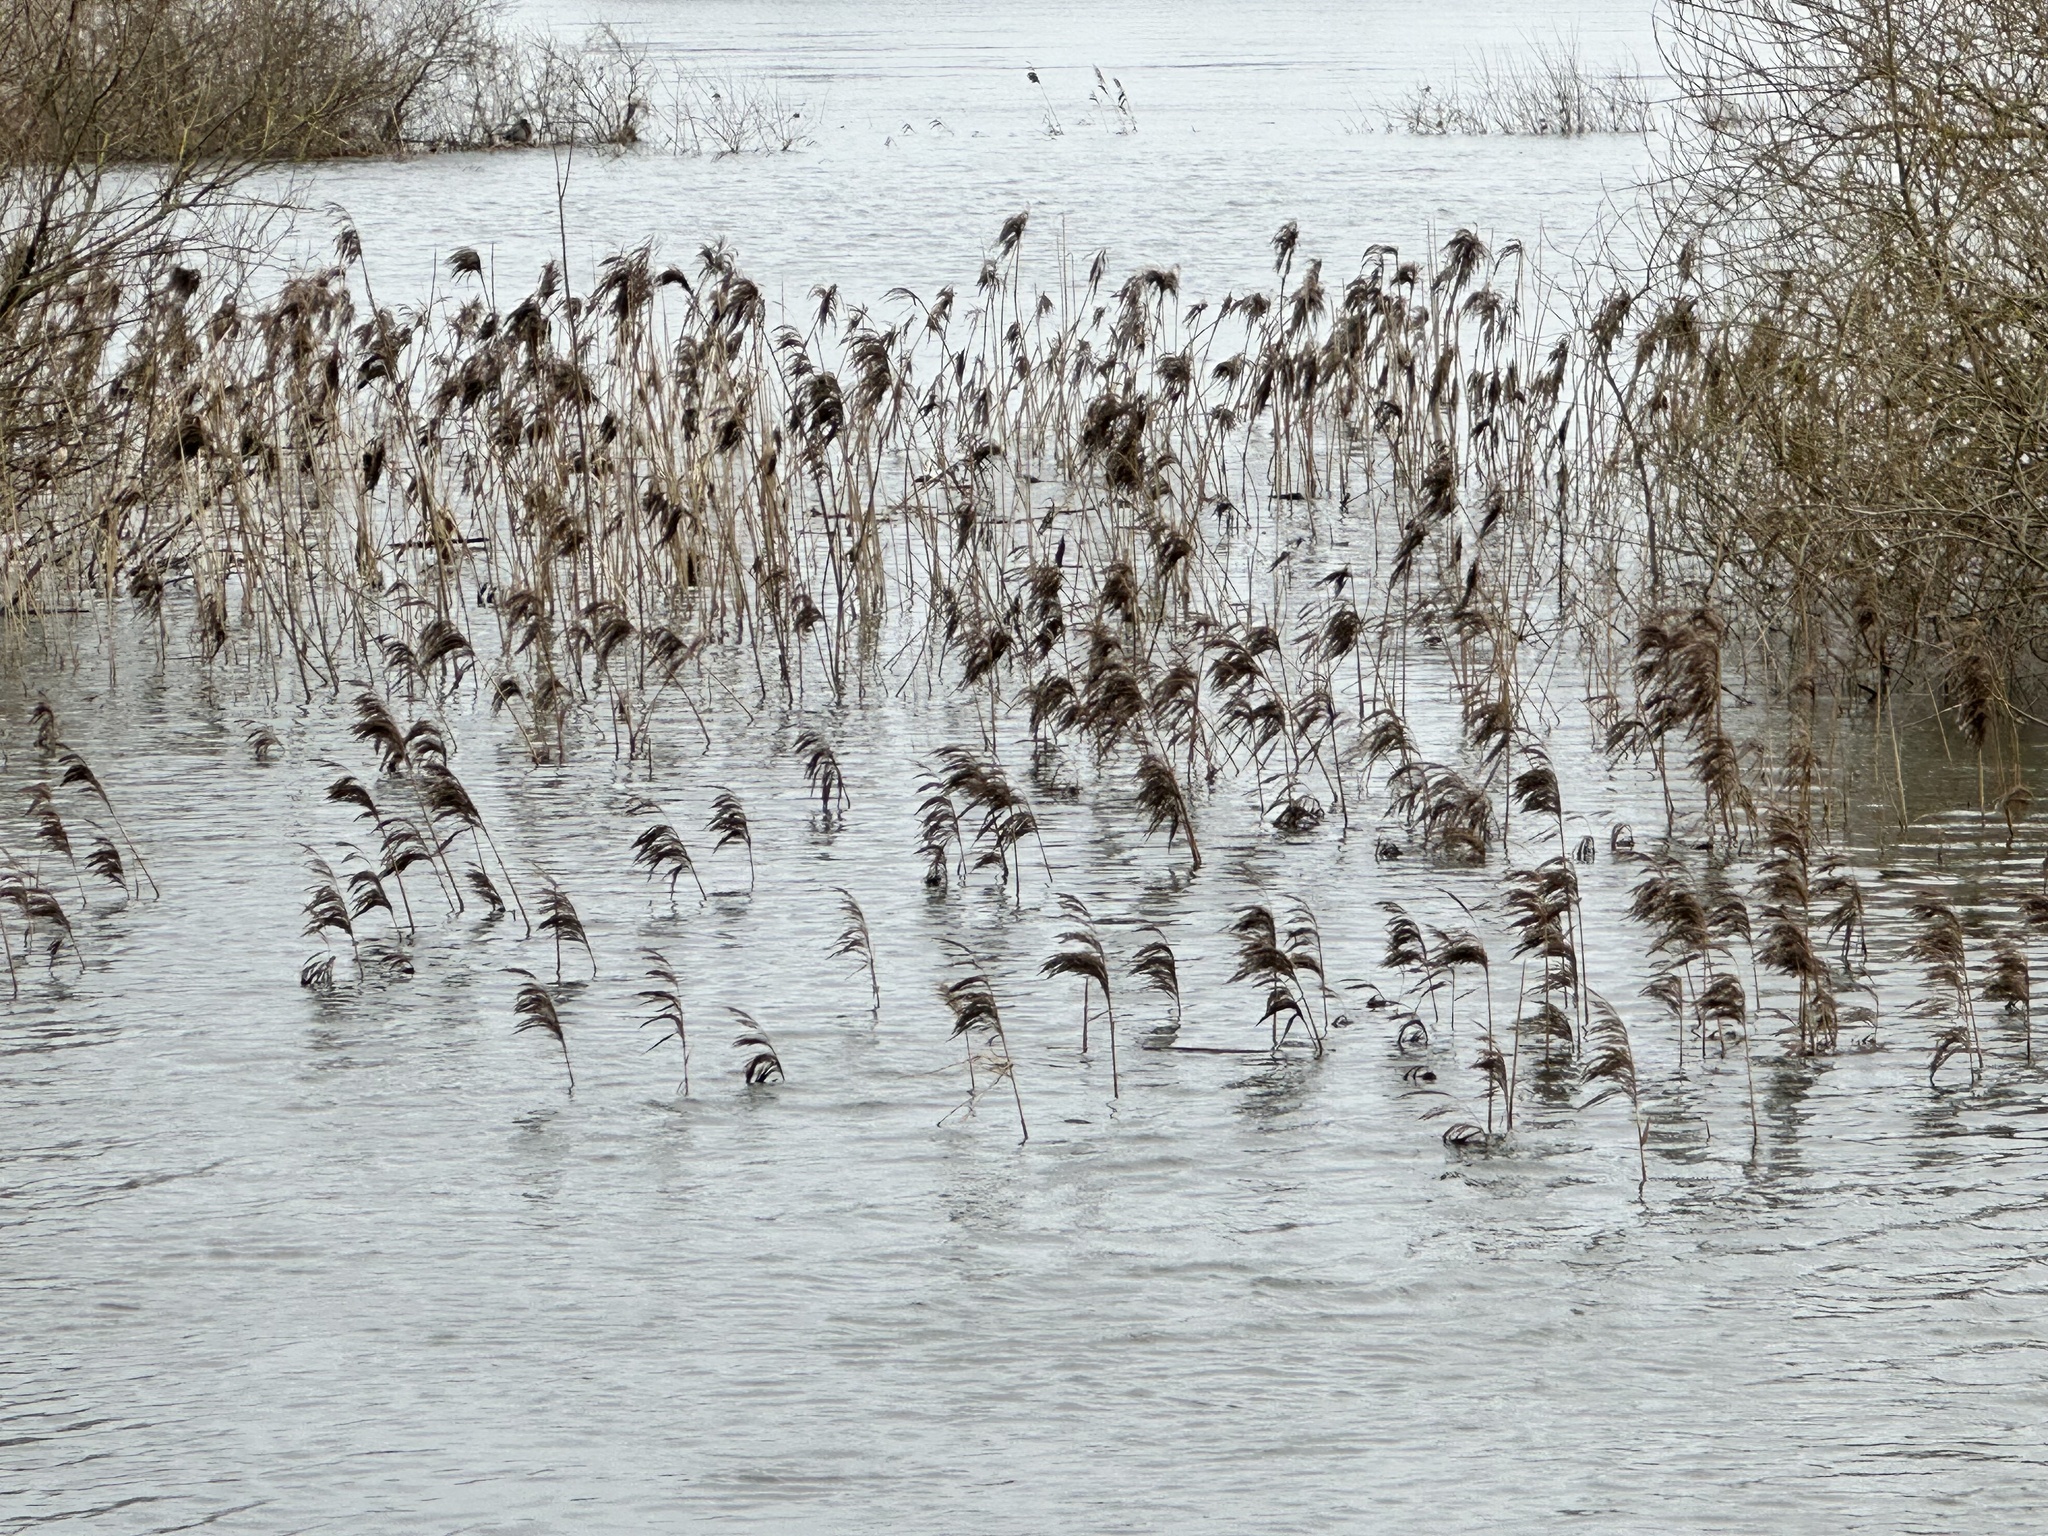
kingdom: Plantae
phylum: Tracheophyta
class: Liliopsida
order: Poales
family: Poaceae
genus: Phragmites
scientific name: Phragmites australis
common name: Common reed
